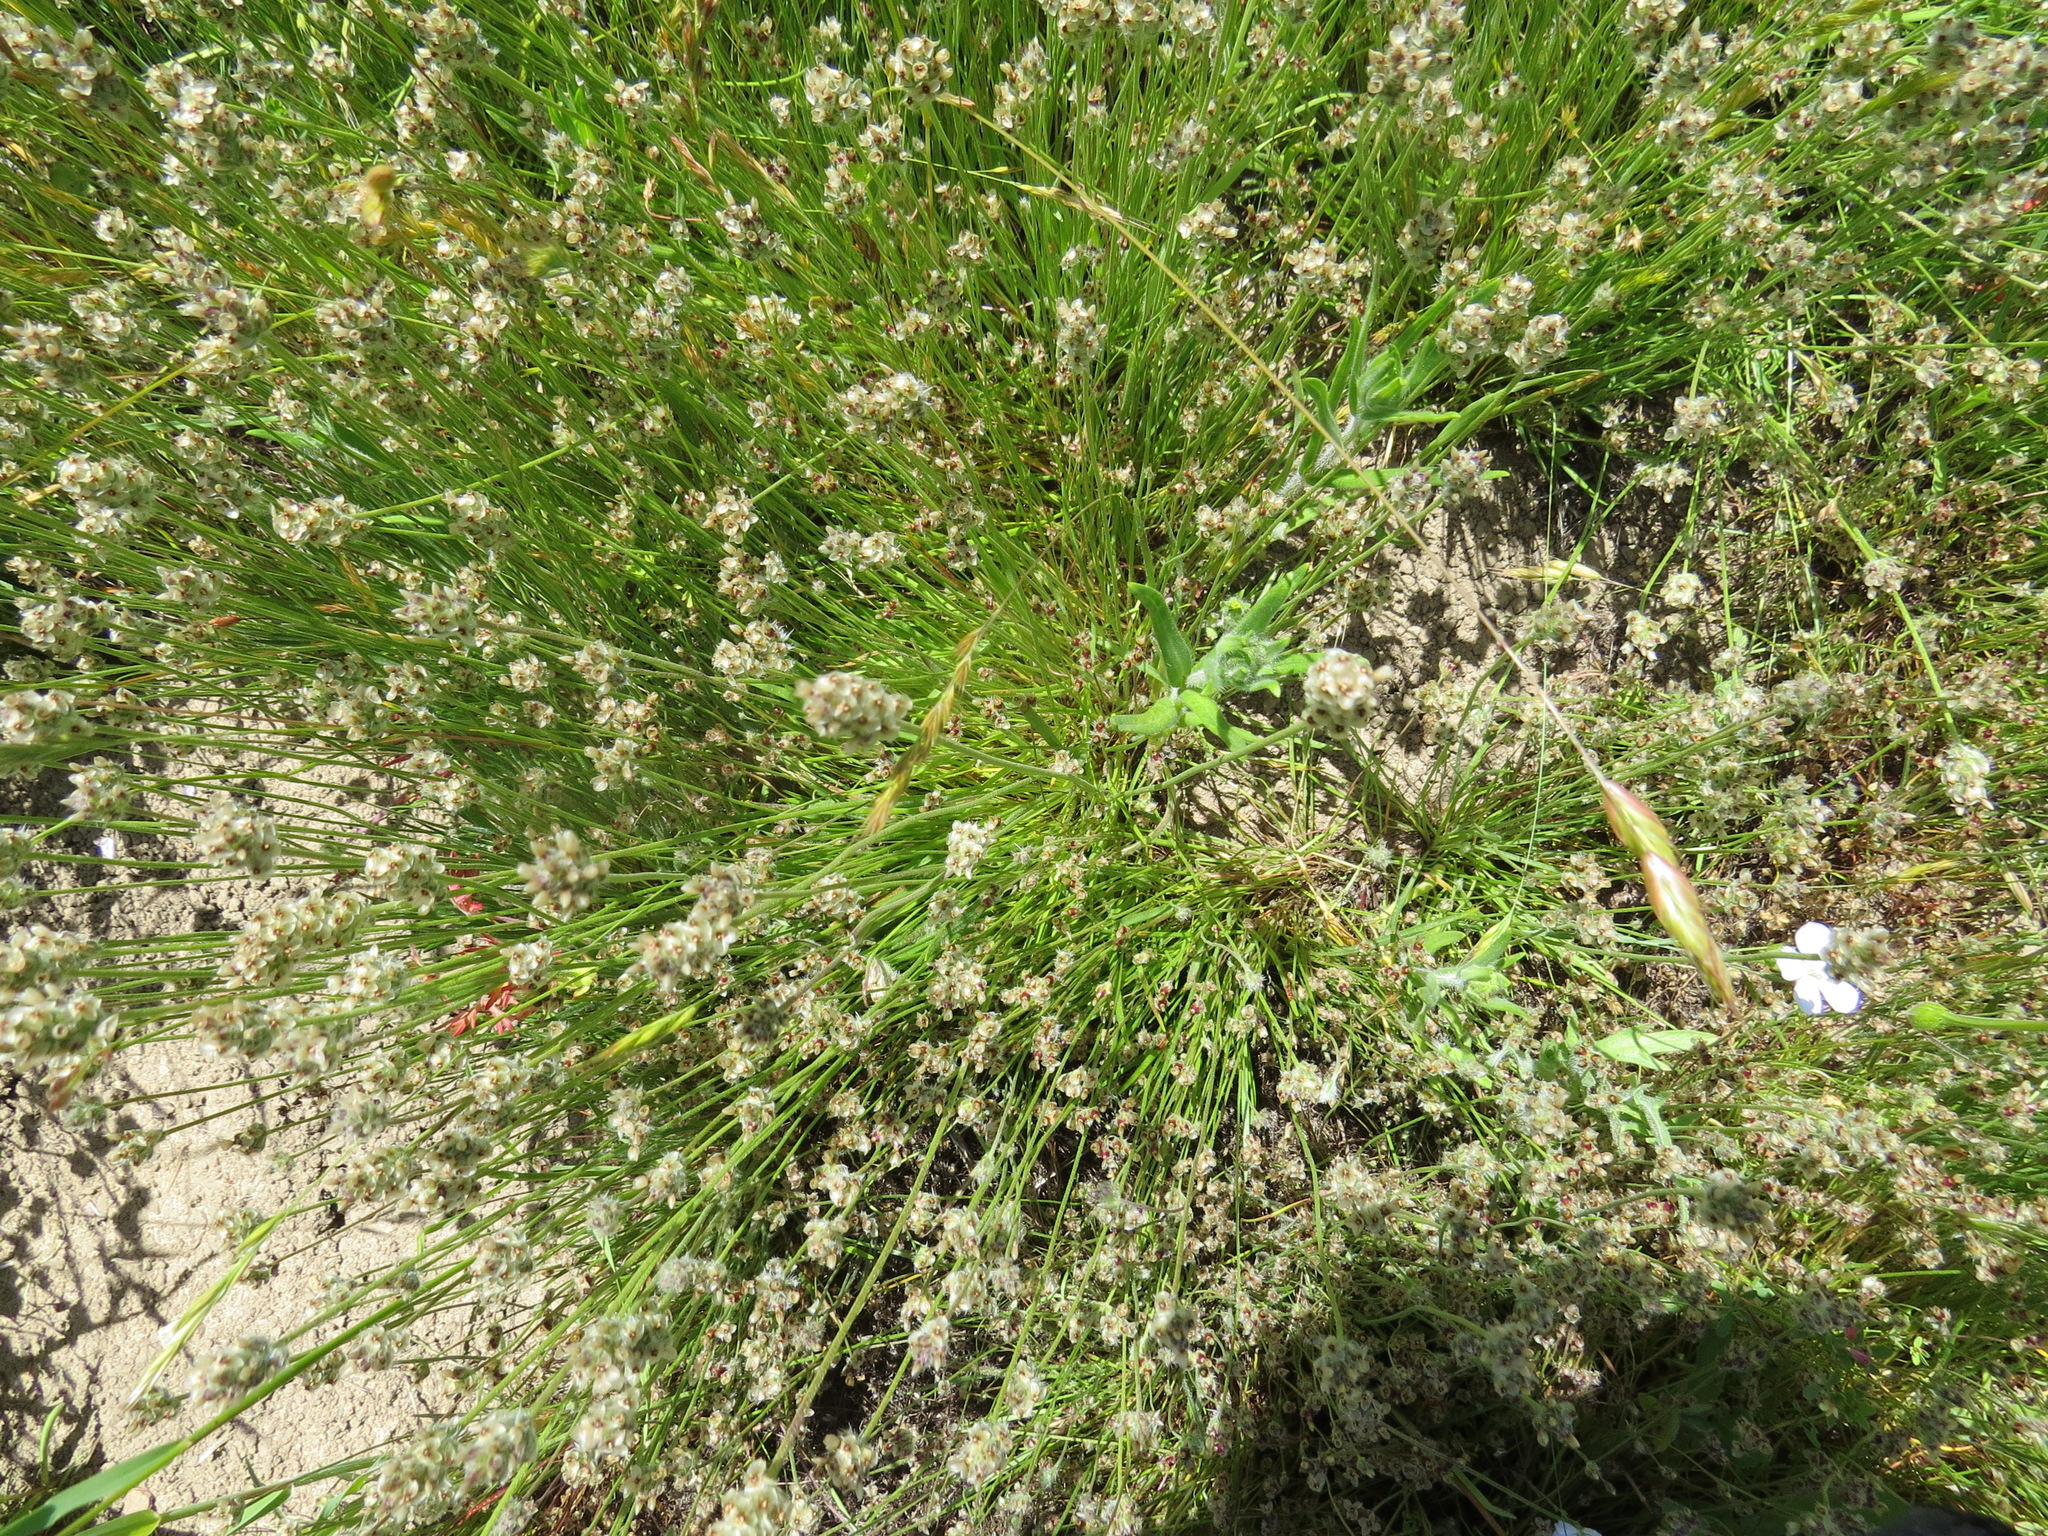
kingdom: Plantae
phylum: Tracheophyta
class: Magnoliopsida
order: Lamiales
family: Plantaginaceae
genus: Plantago
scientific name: Plantago erecta
